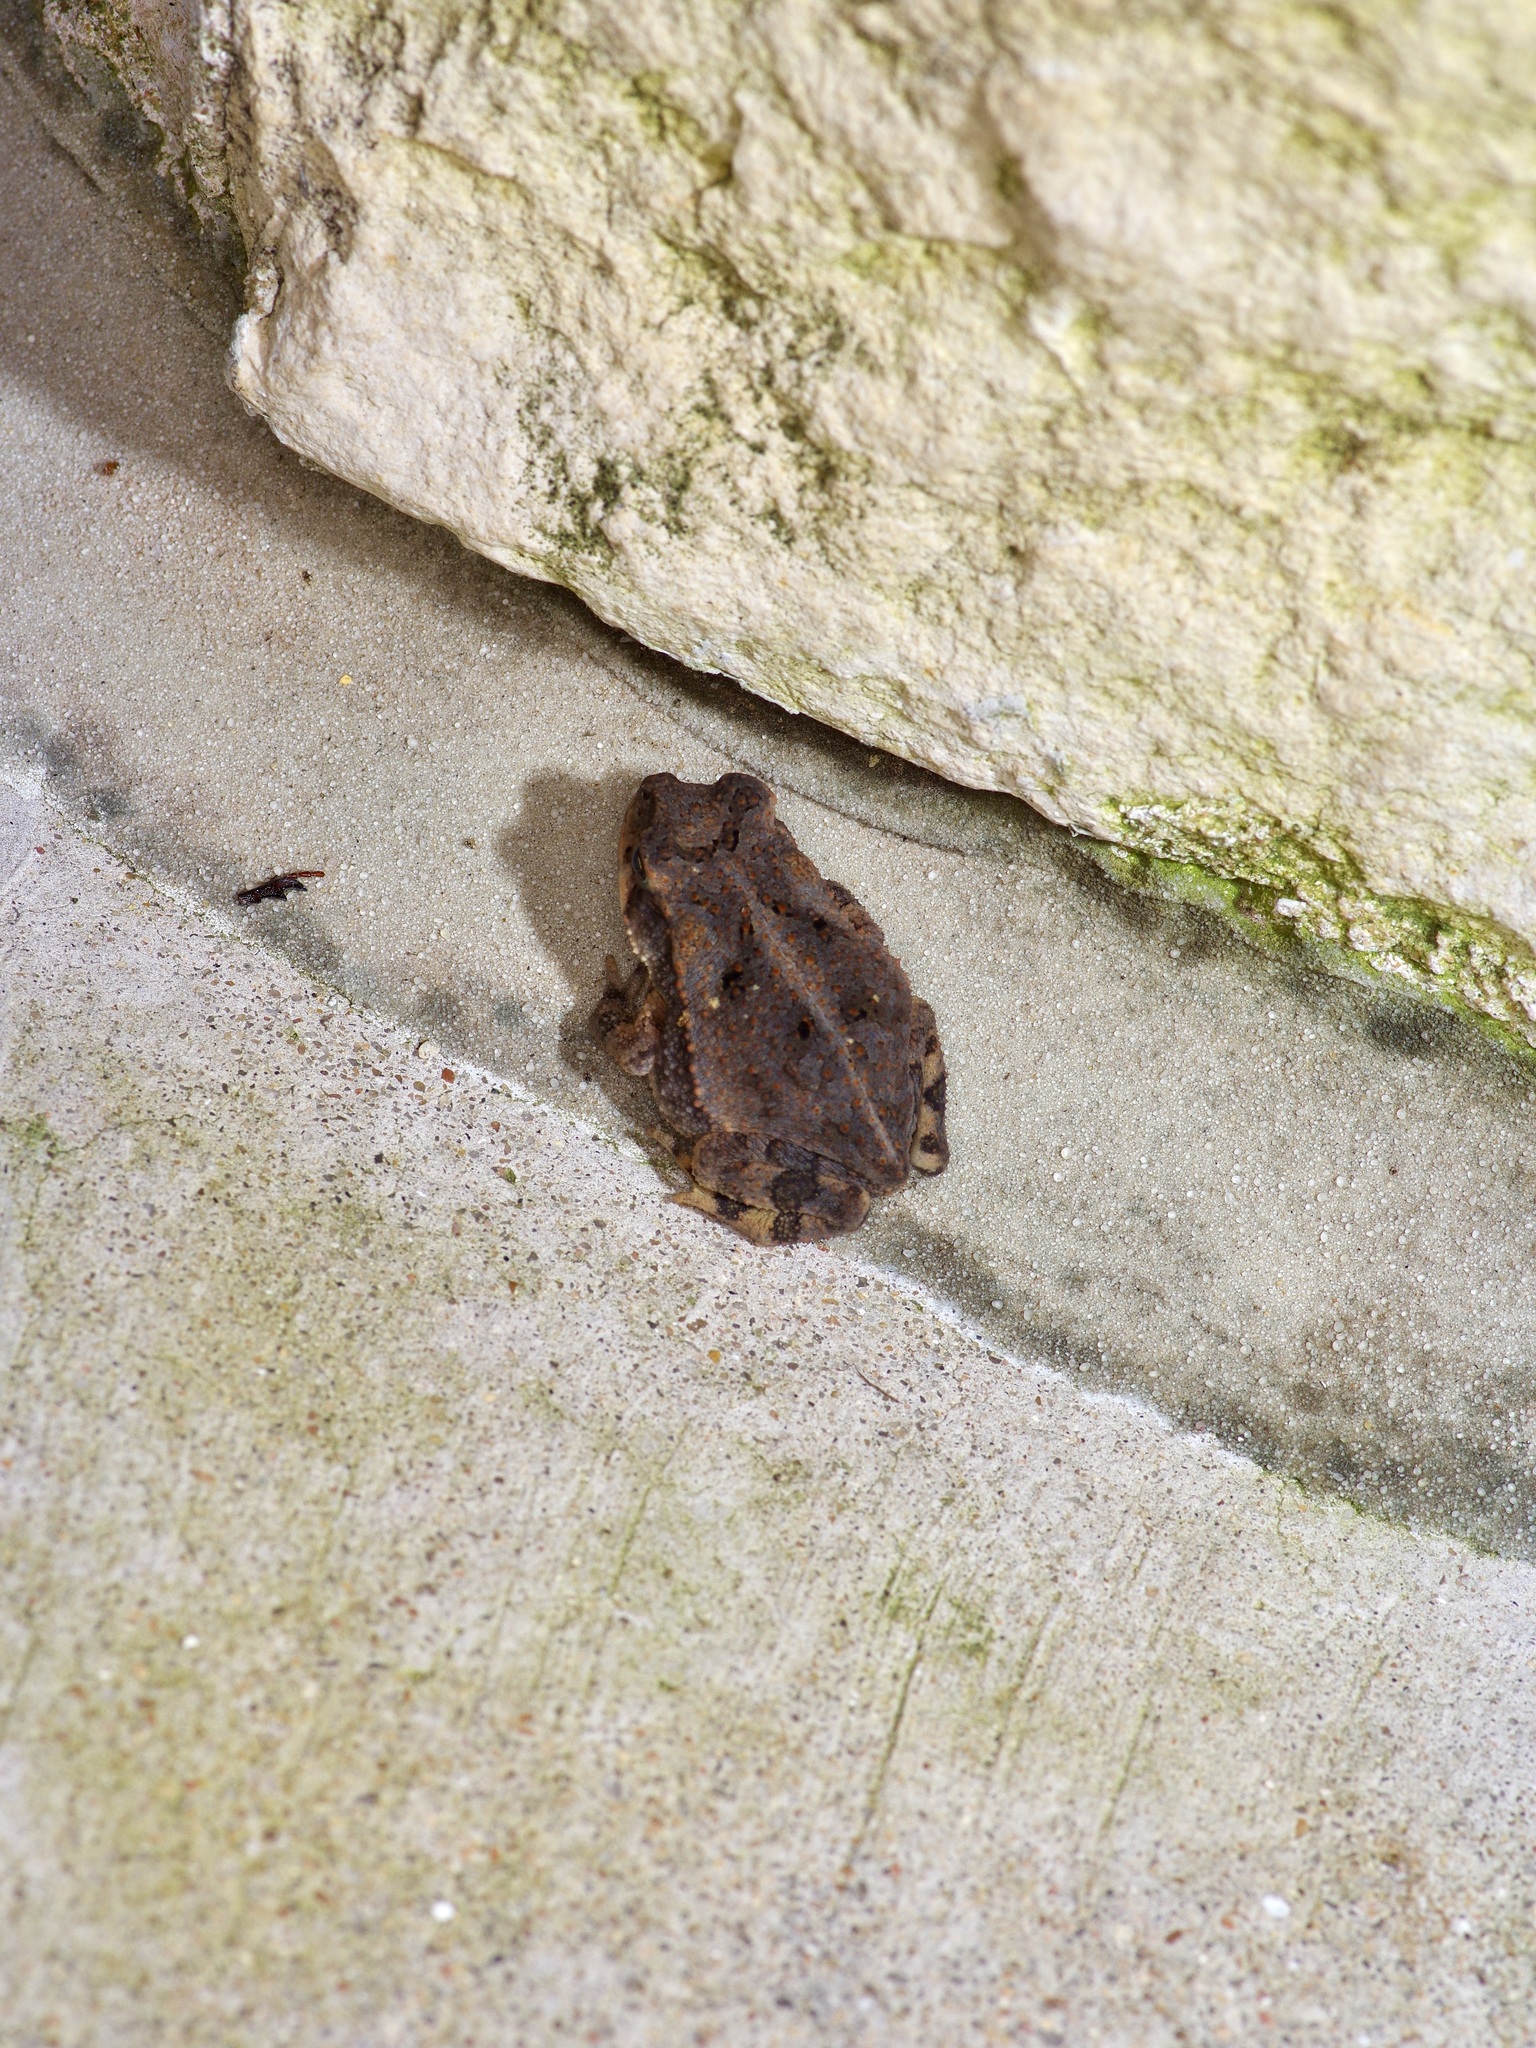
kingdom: Animalia
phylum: Chordata
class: Amphibia
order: Anura
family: Bufonidae
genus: Incilius
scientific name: Incilius nebulifer
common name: Gulf coast toad
